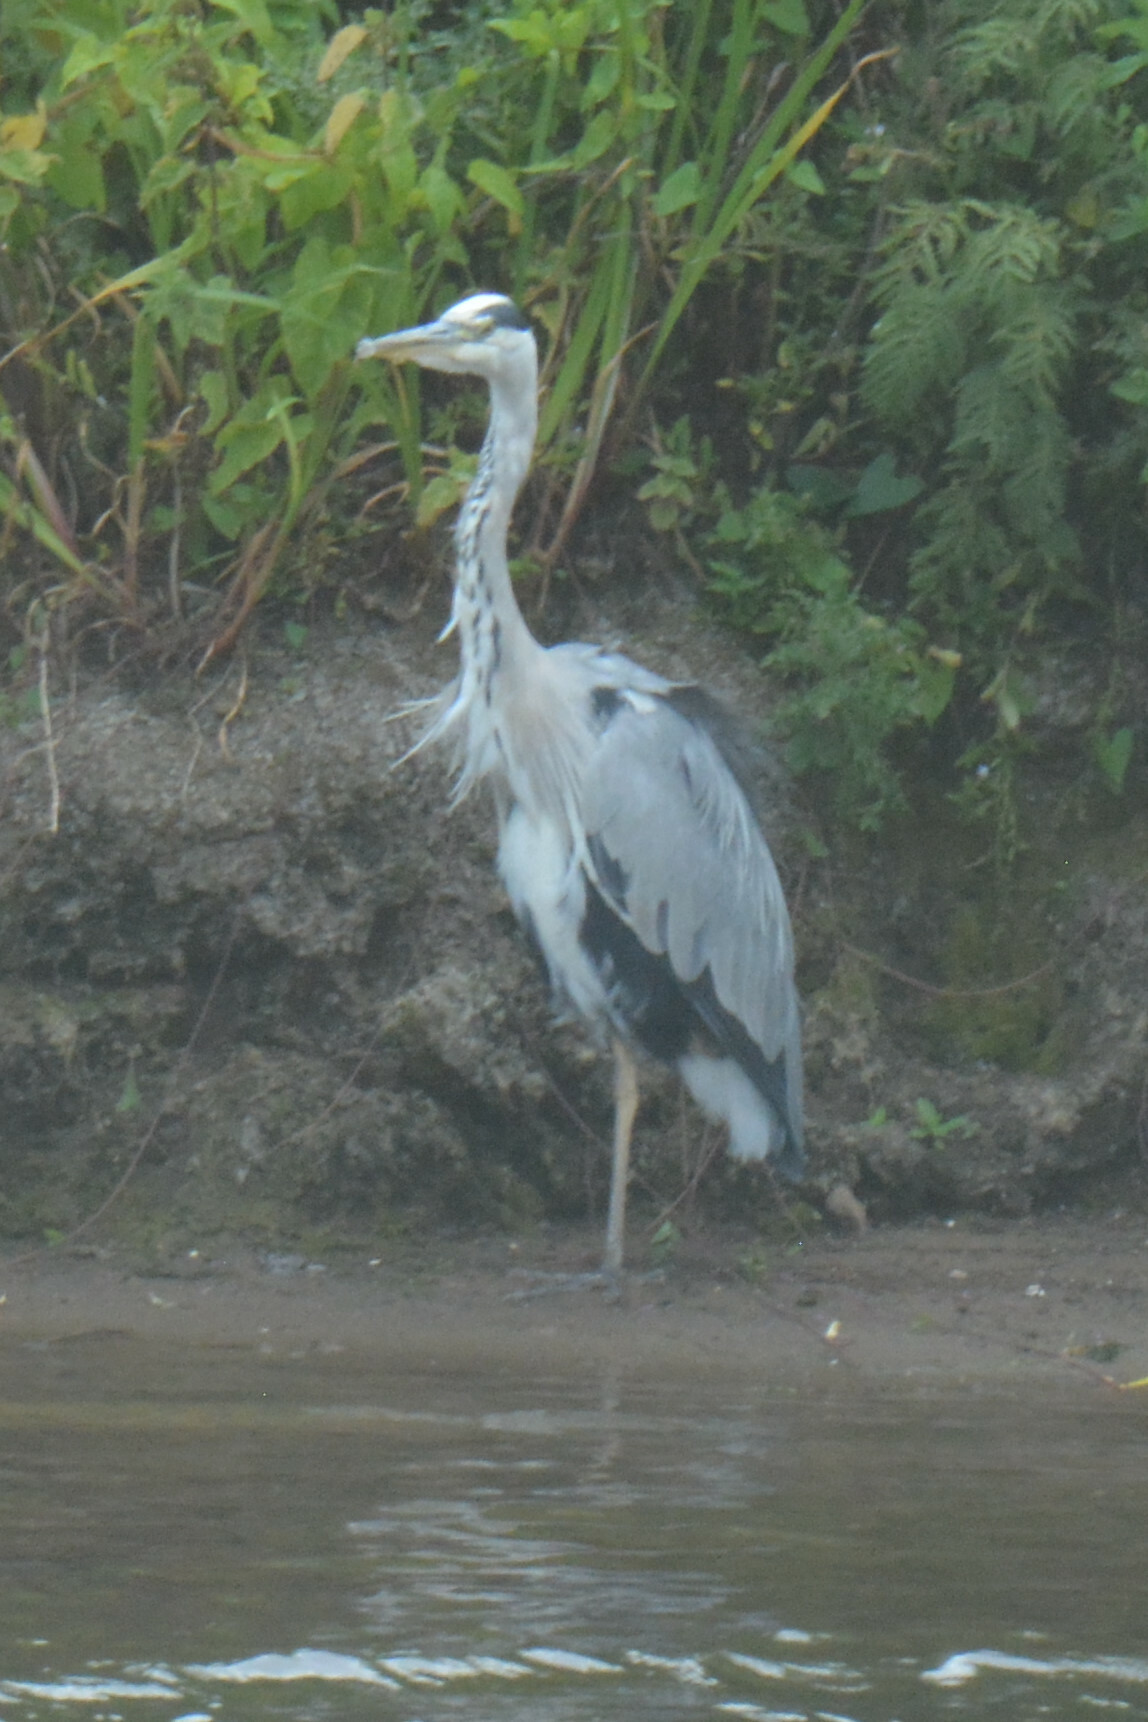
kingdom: Animalia
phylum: Chordata
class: Aves
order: Pelecaniformes
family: Ardeidae
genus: Ardea
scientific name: Ardea cinerea
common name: Grey heron
